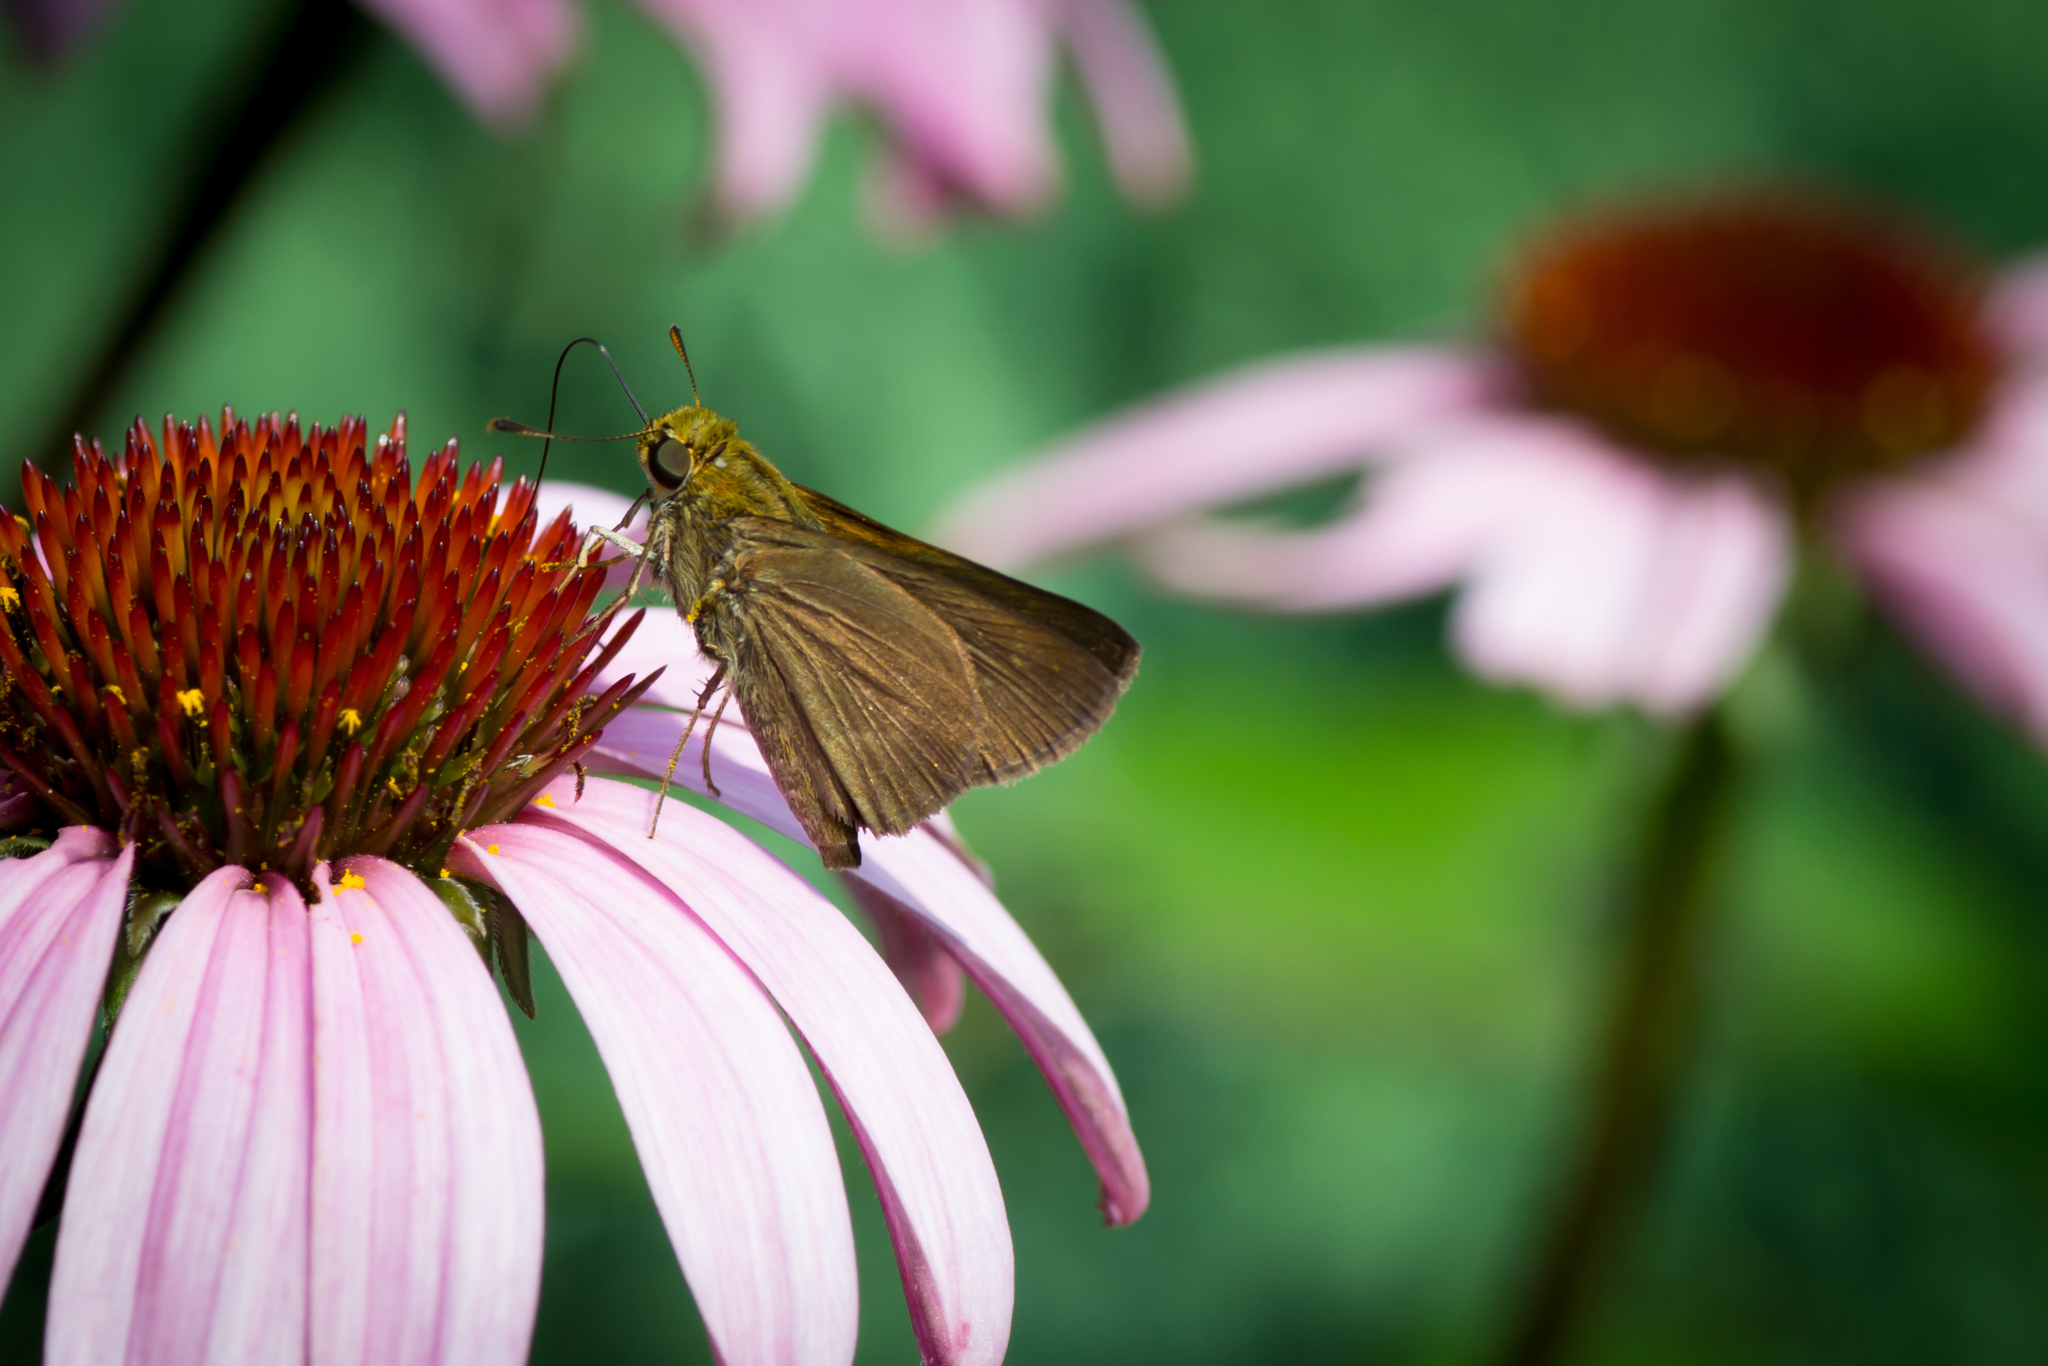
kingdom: Animalia
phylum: Arthropoda
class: Insecta
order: Lepidoptera
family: Hesperiidae
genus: Euphyes
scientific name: Euphyes vestris
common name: Dun skipper
